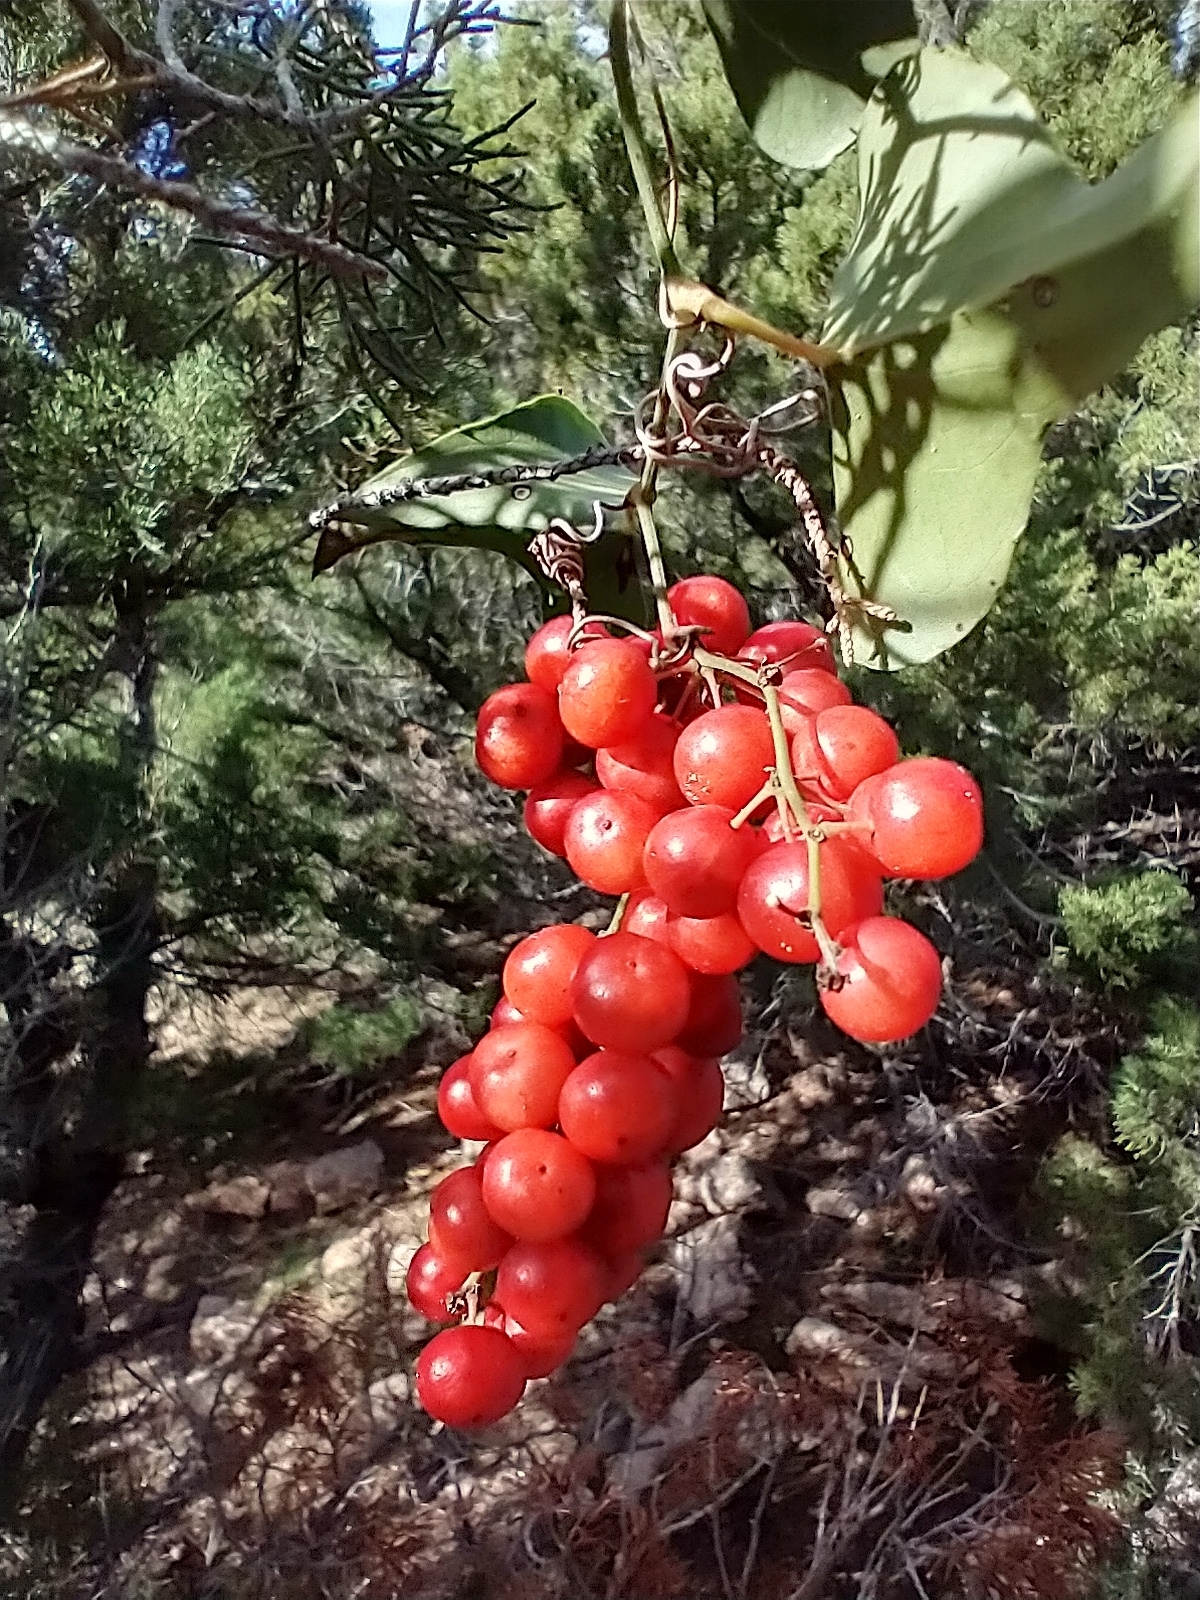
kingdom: Plantae
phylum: Tracheophyta
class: Liliopsida
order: Liliales
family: Smilacaceae
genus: Smilax
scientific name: Smilax aspera
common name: Common smilax
